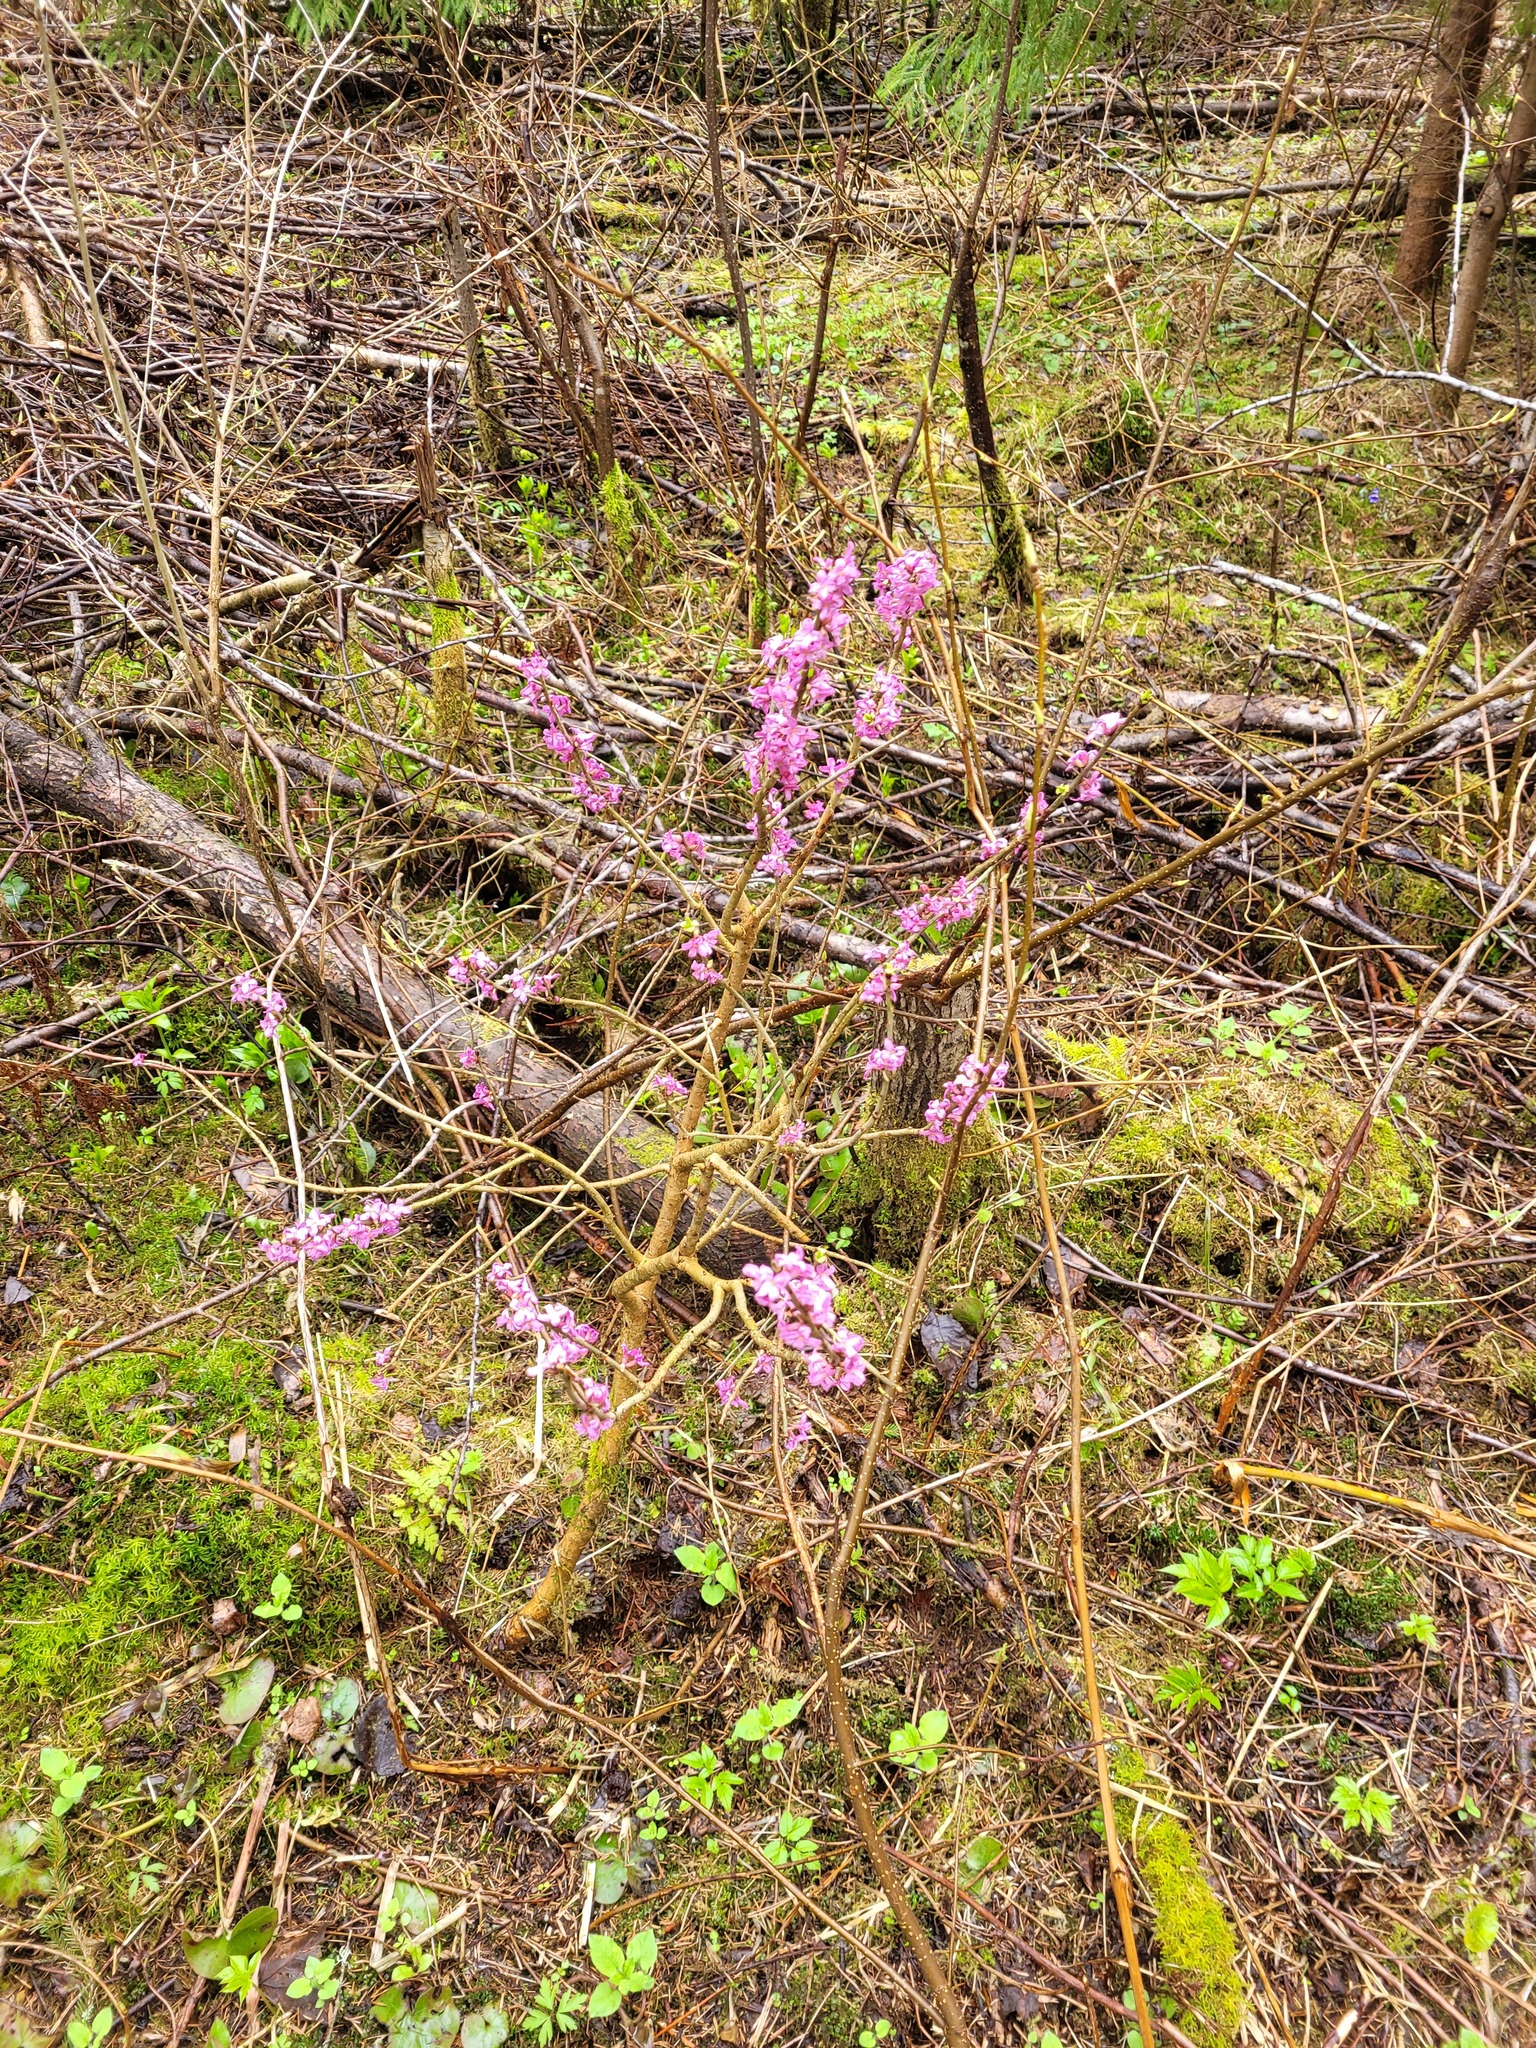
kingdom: Plantae
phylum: Tracheophyta
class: Magnoliopsida
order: Malvales
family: Thymelaeaceae
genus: Daphne
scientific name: Daphne mezereum
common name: Mezereon
